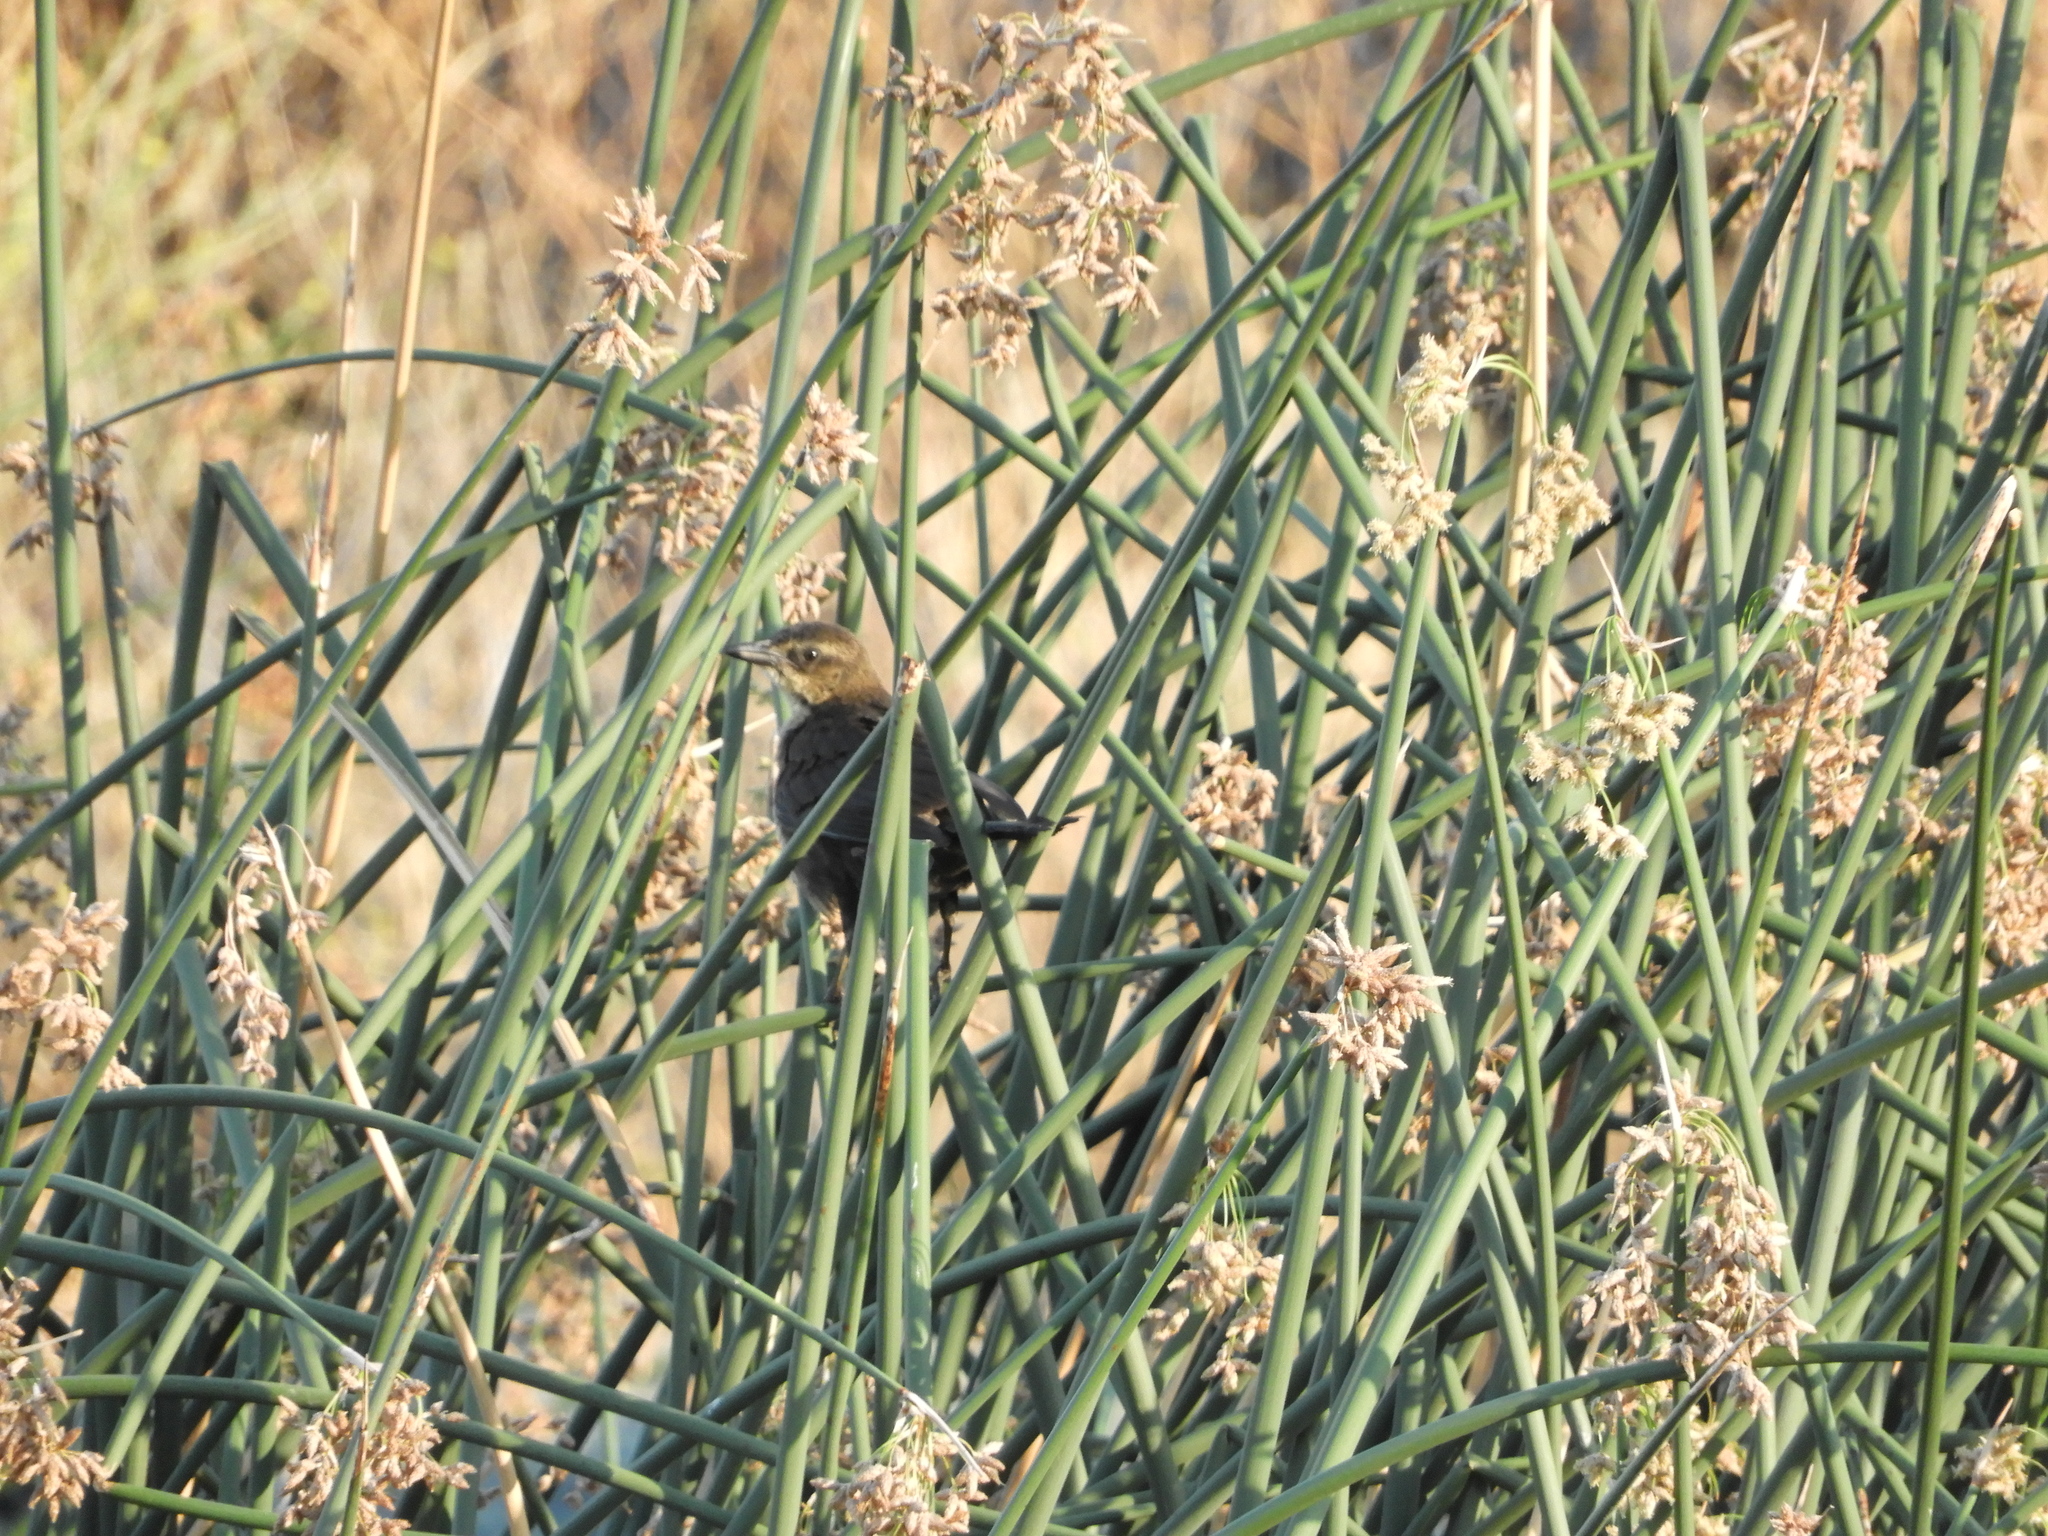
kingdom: Animalia
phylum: Chordata
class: Aves
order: Passeriformes
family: Icteridae
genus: Agelaius
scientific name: Agelaius phoeniceus
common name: Red-winged blackbird
